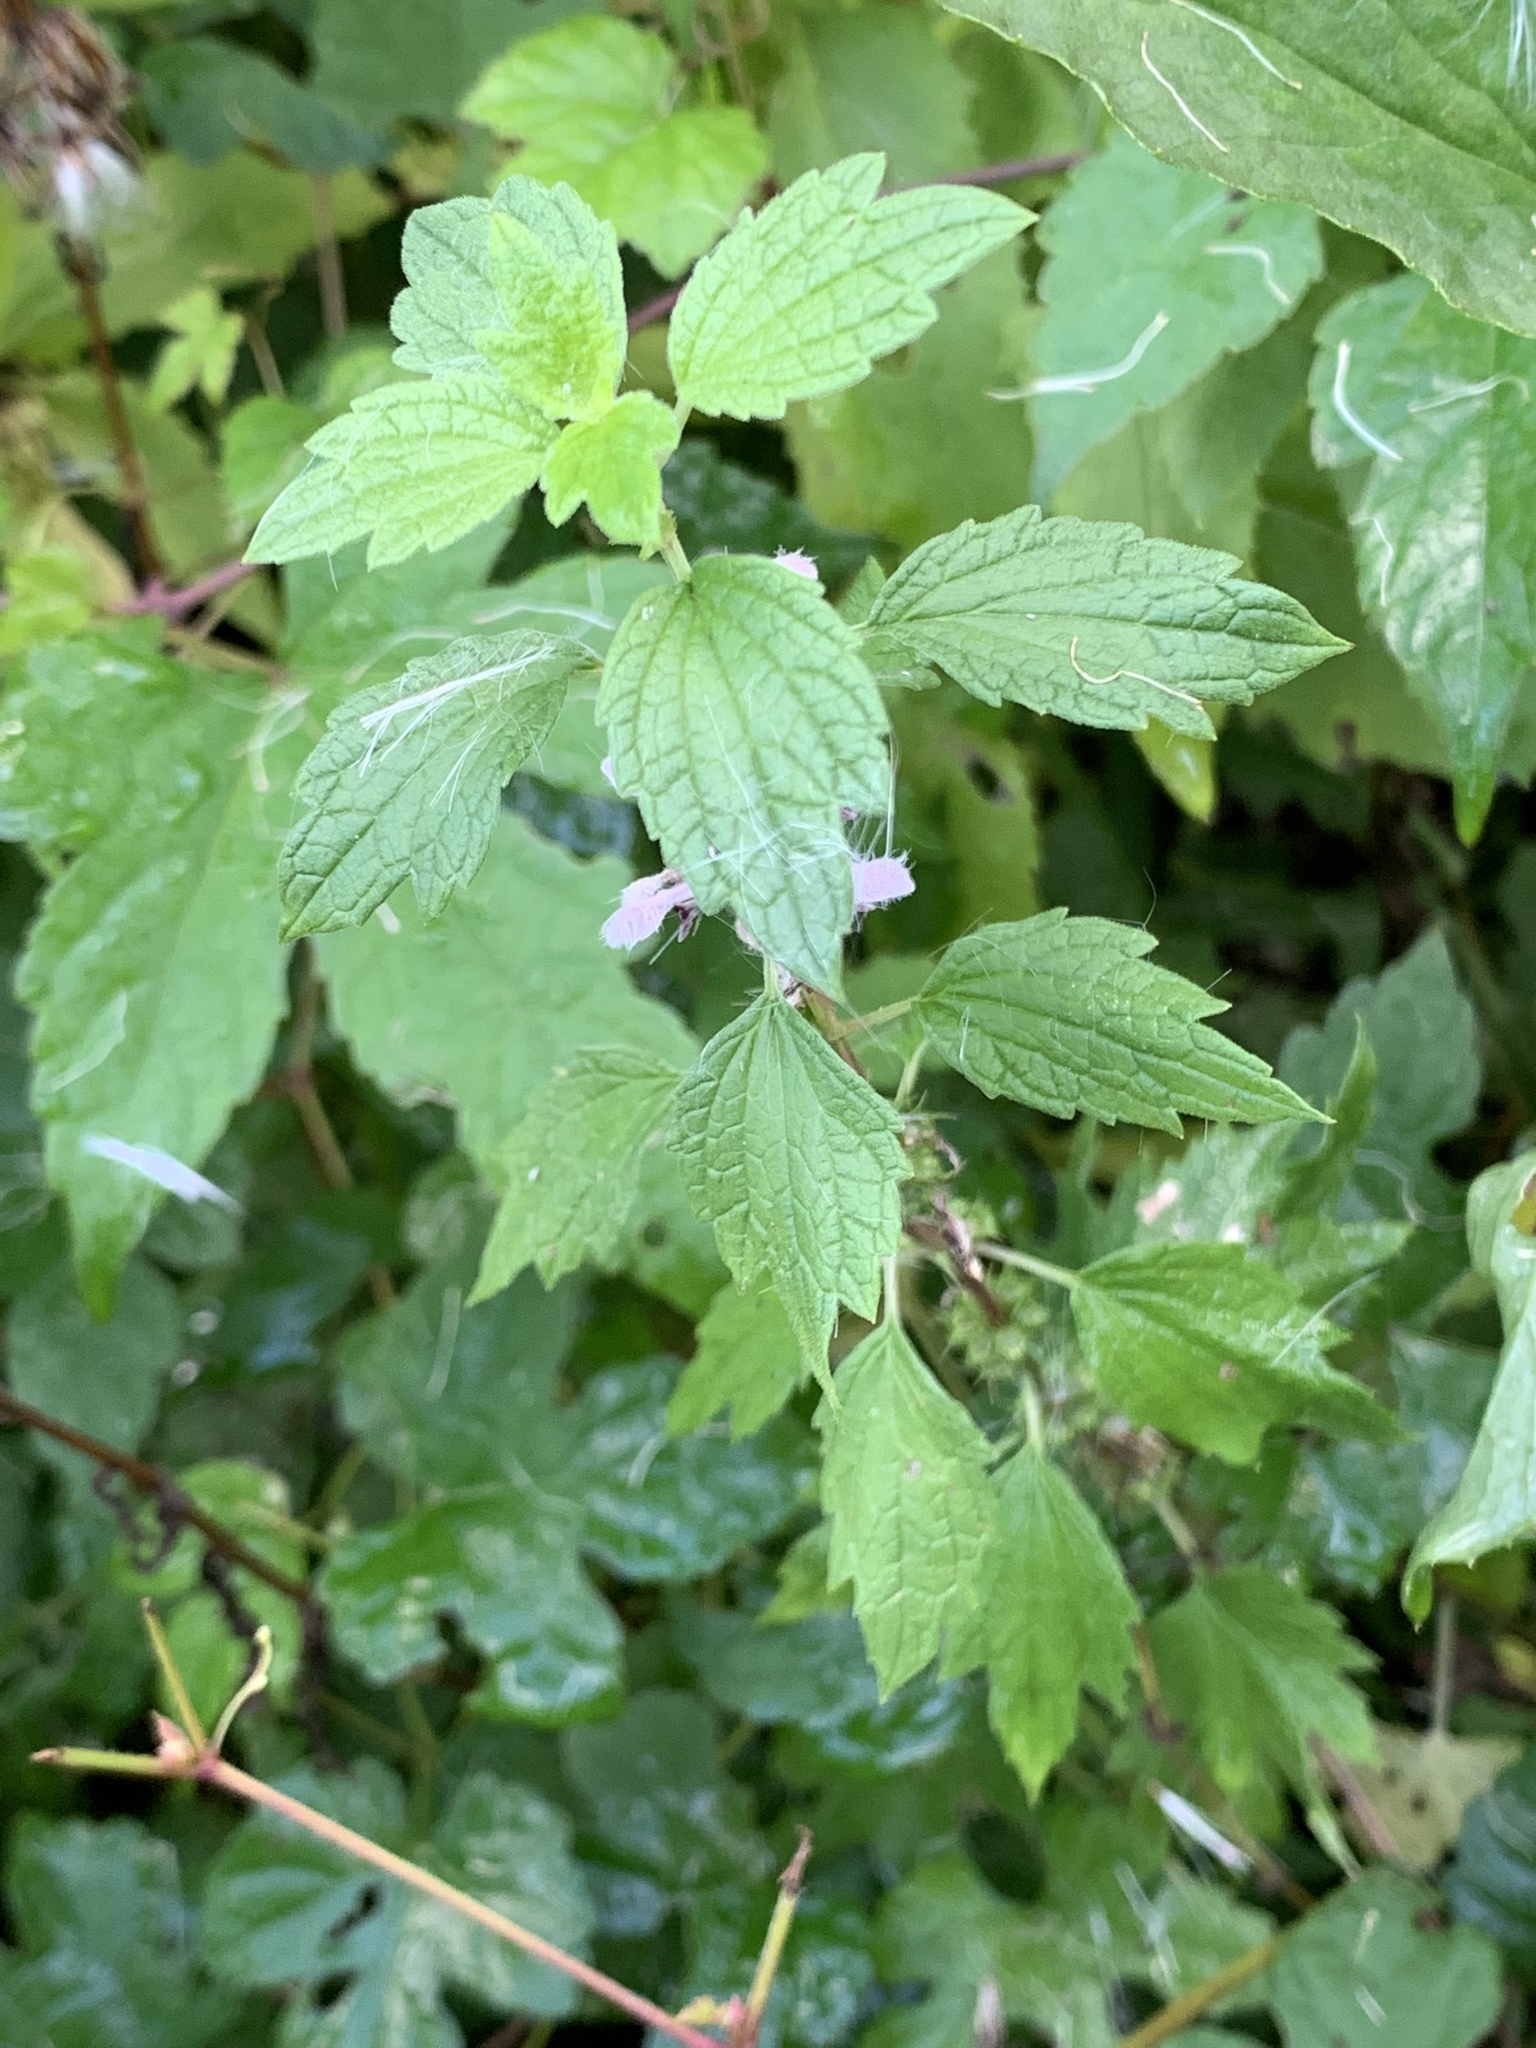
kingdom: Plantae
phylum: Tracheophyta
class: Magnoliopsida
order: Lamiales
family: Lamiaceae
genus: Leonurus
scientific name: Leonurus cardiaca
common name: Motherwort
